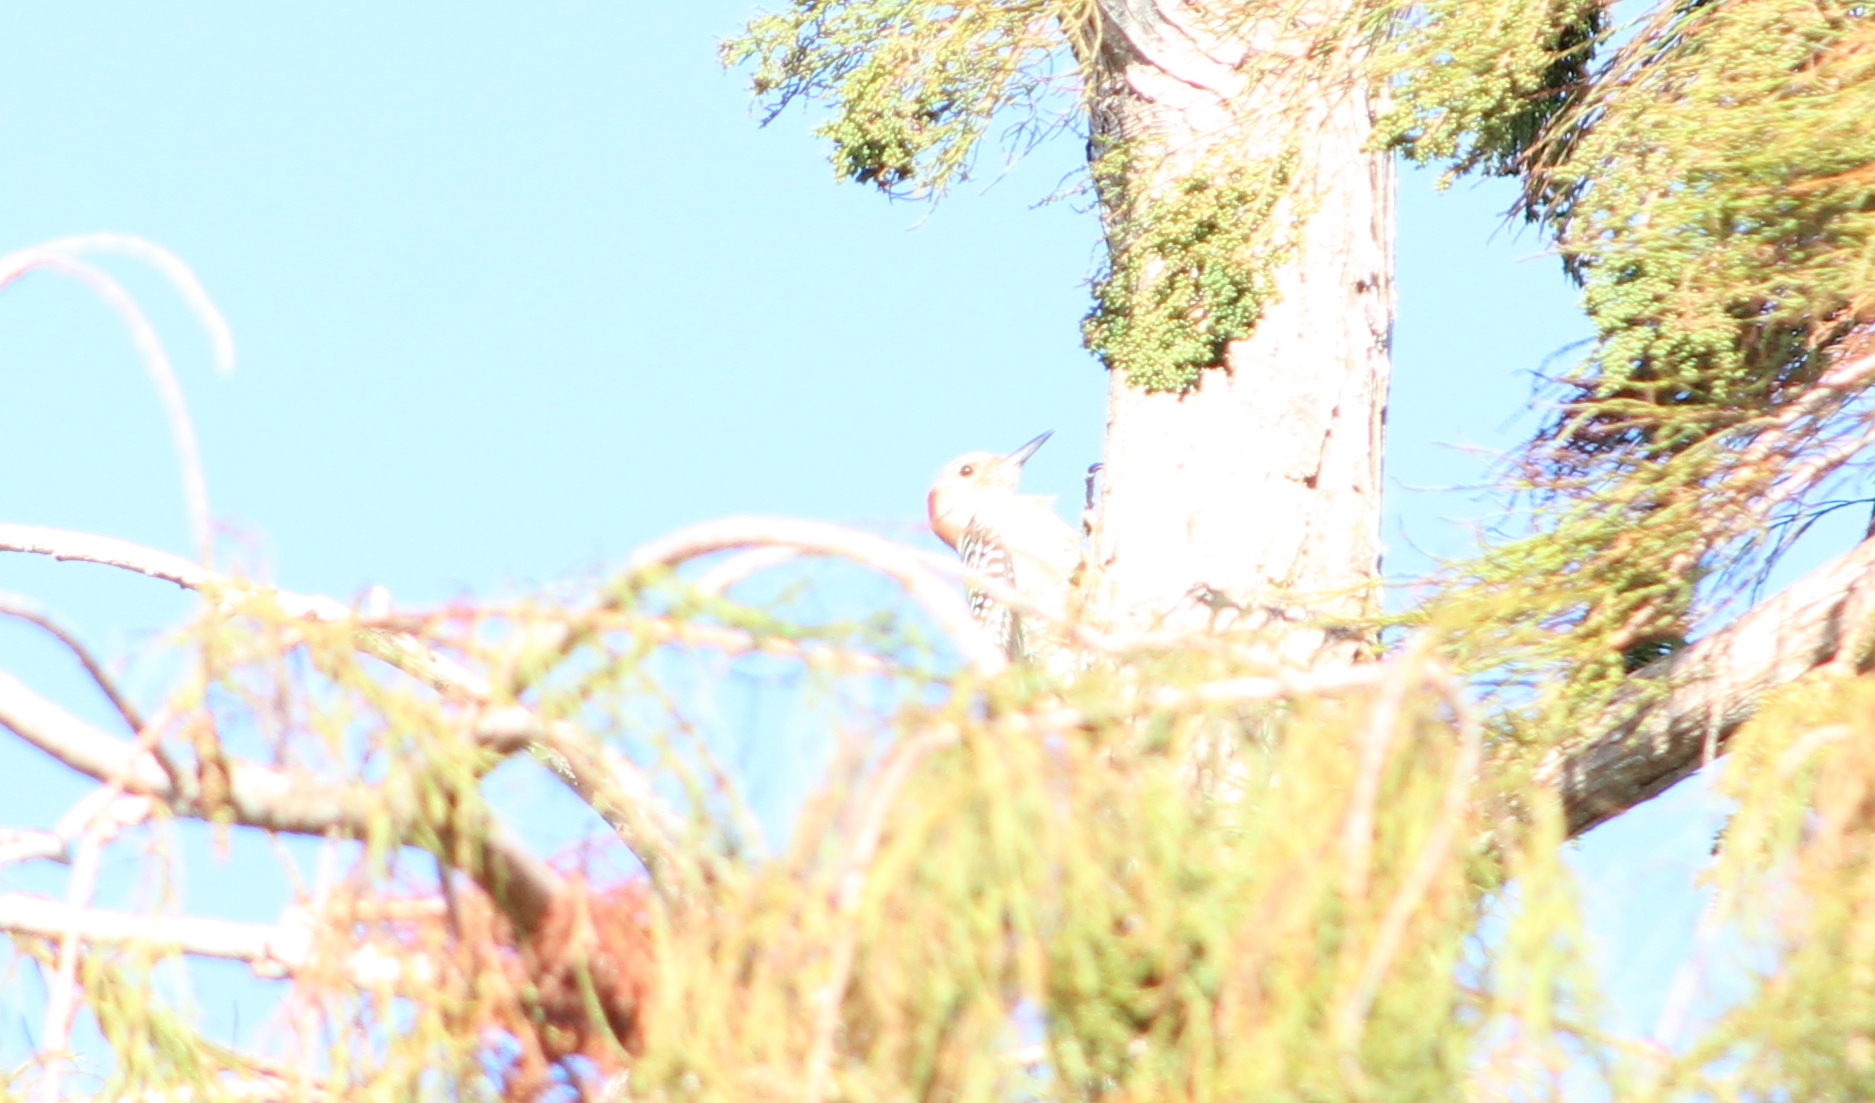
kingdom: Animalia
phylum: Chordata
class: Aves
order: Piciformes
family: Picidae
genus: Melanerpes
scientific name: Melanerpes carolinus
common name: Red-bellied woodpecker
